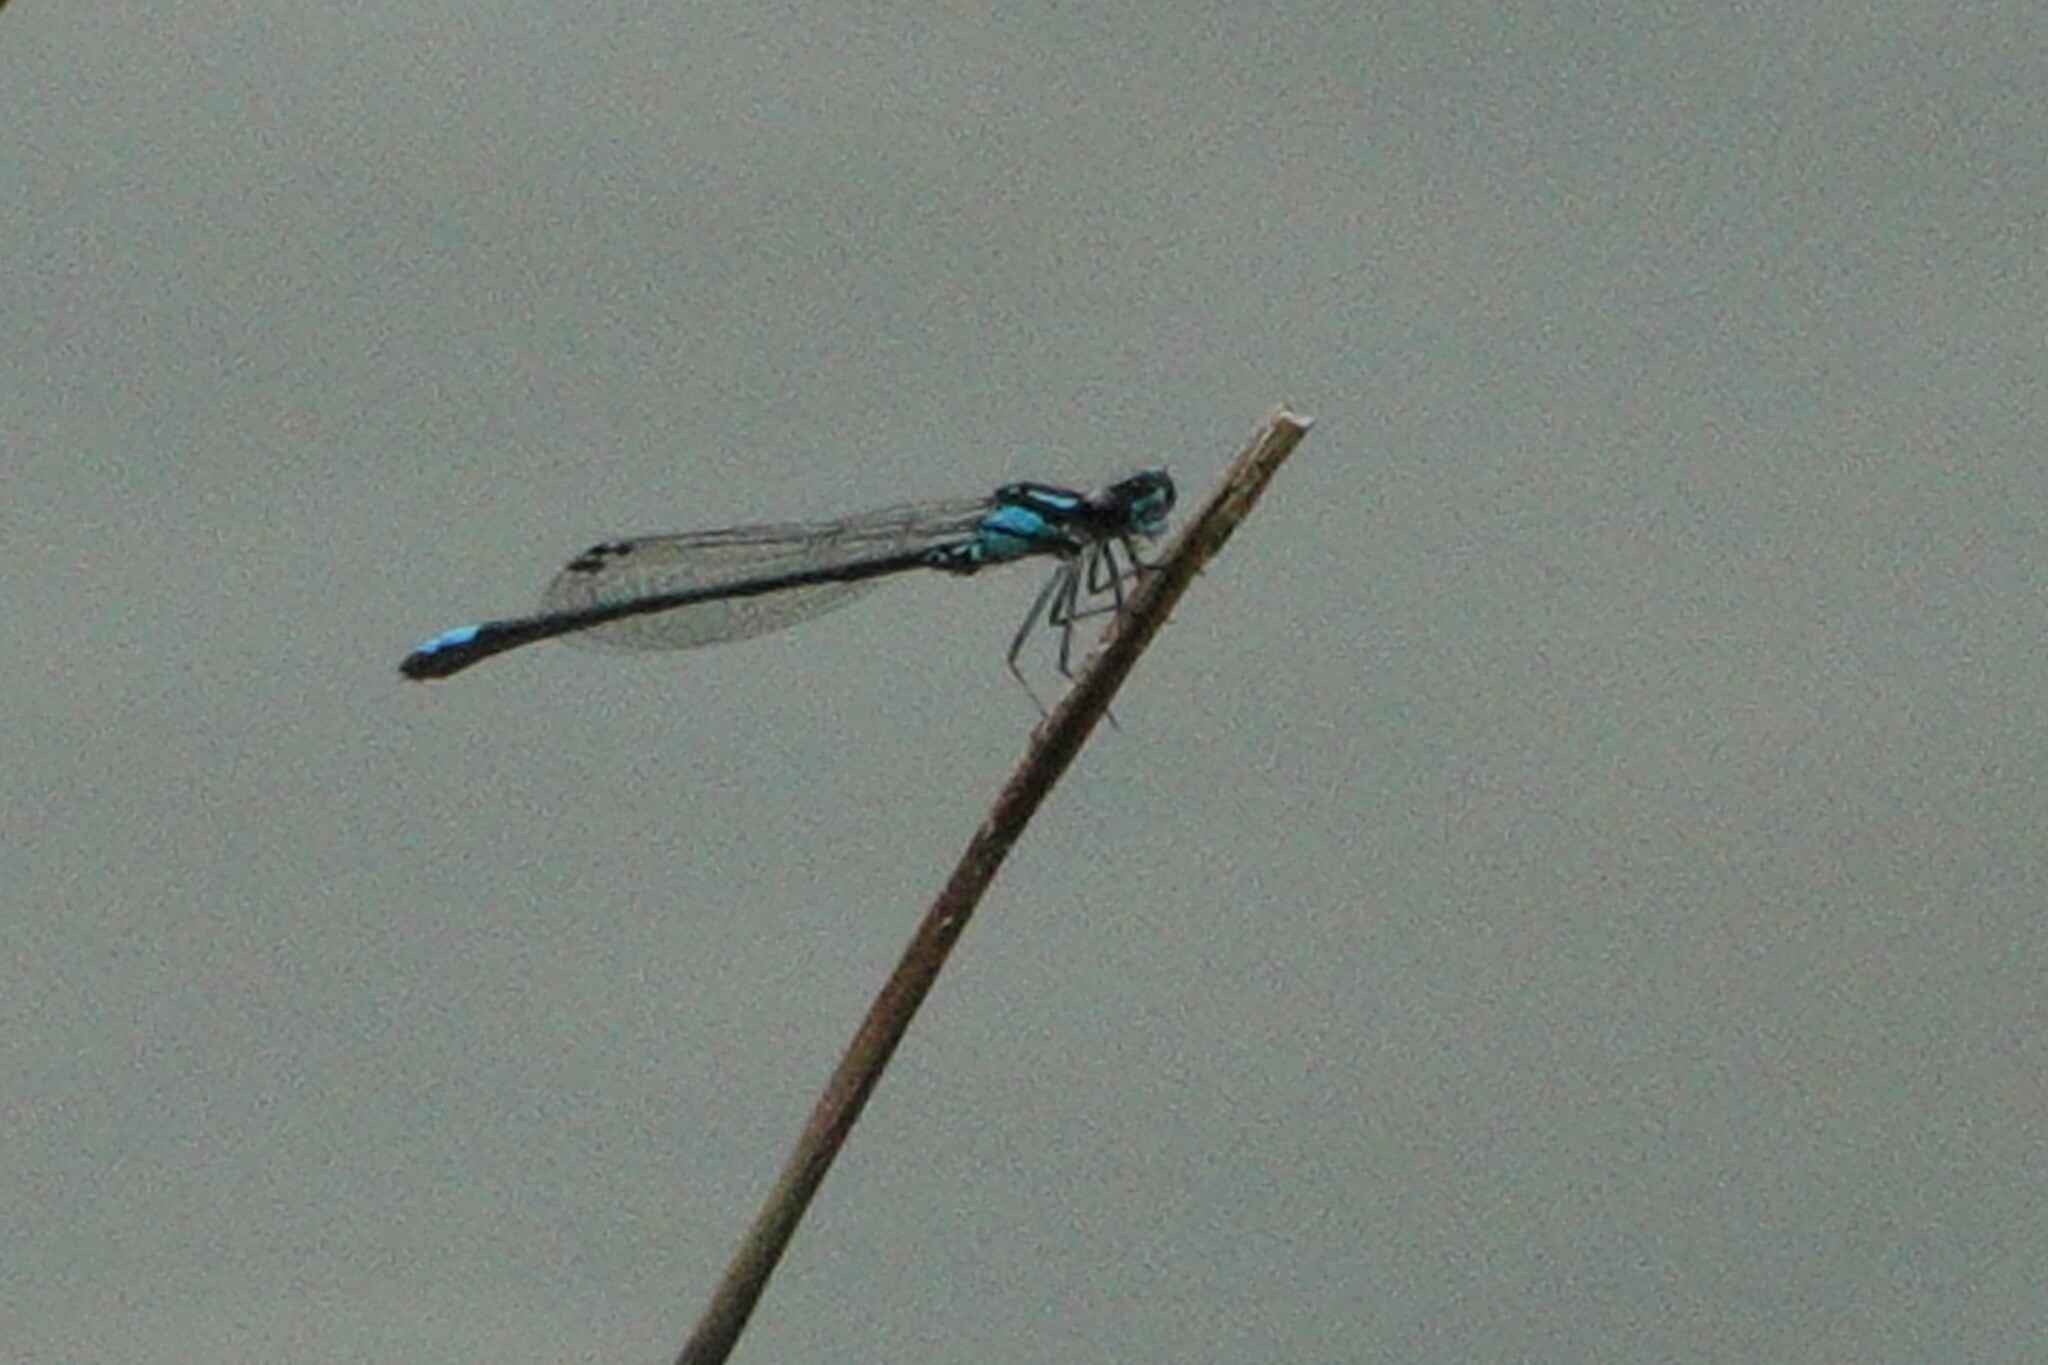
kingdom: Animalia
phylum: Arthropoda
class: Insecta
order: Odonata
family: Coenagrionidae
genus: Enallagma
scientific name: Enallagma geminatum
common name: Skimming bluet
